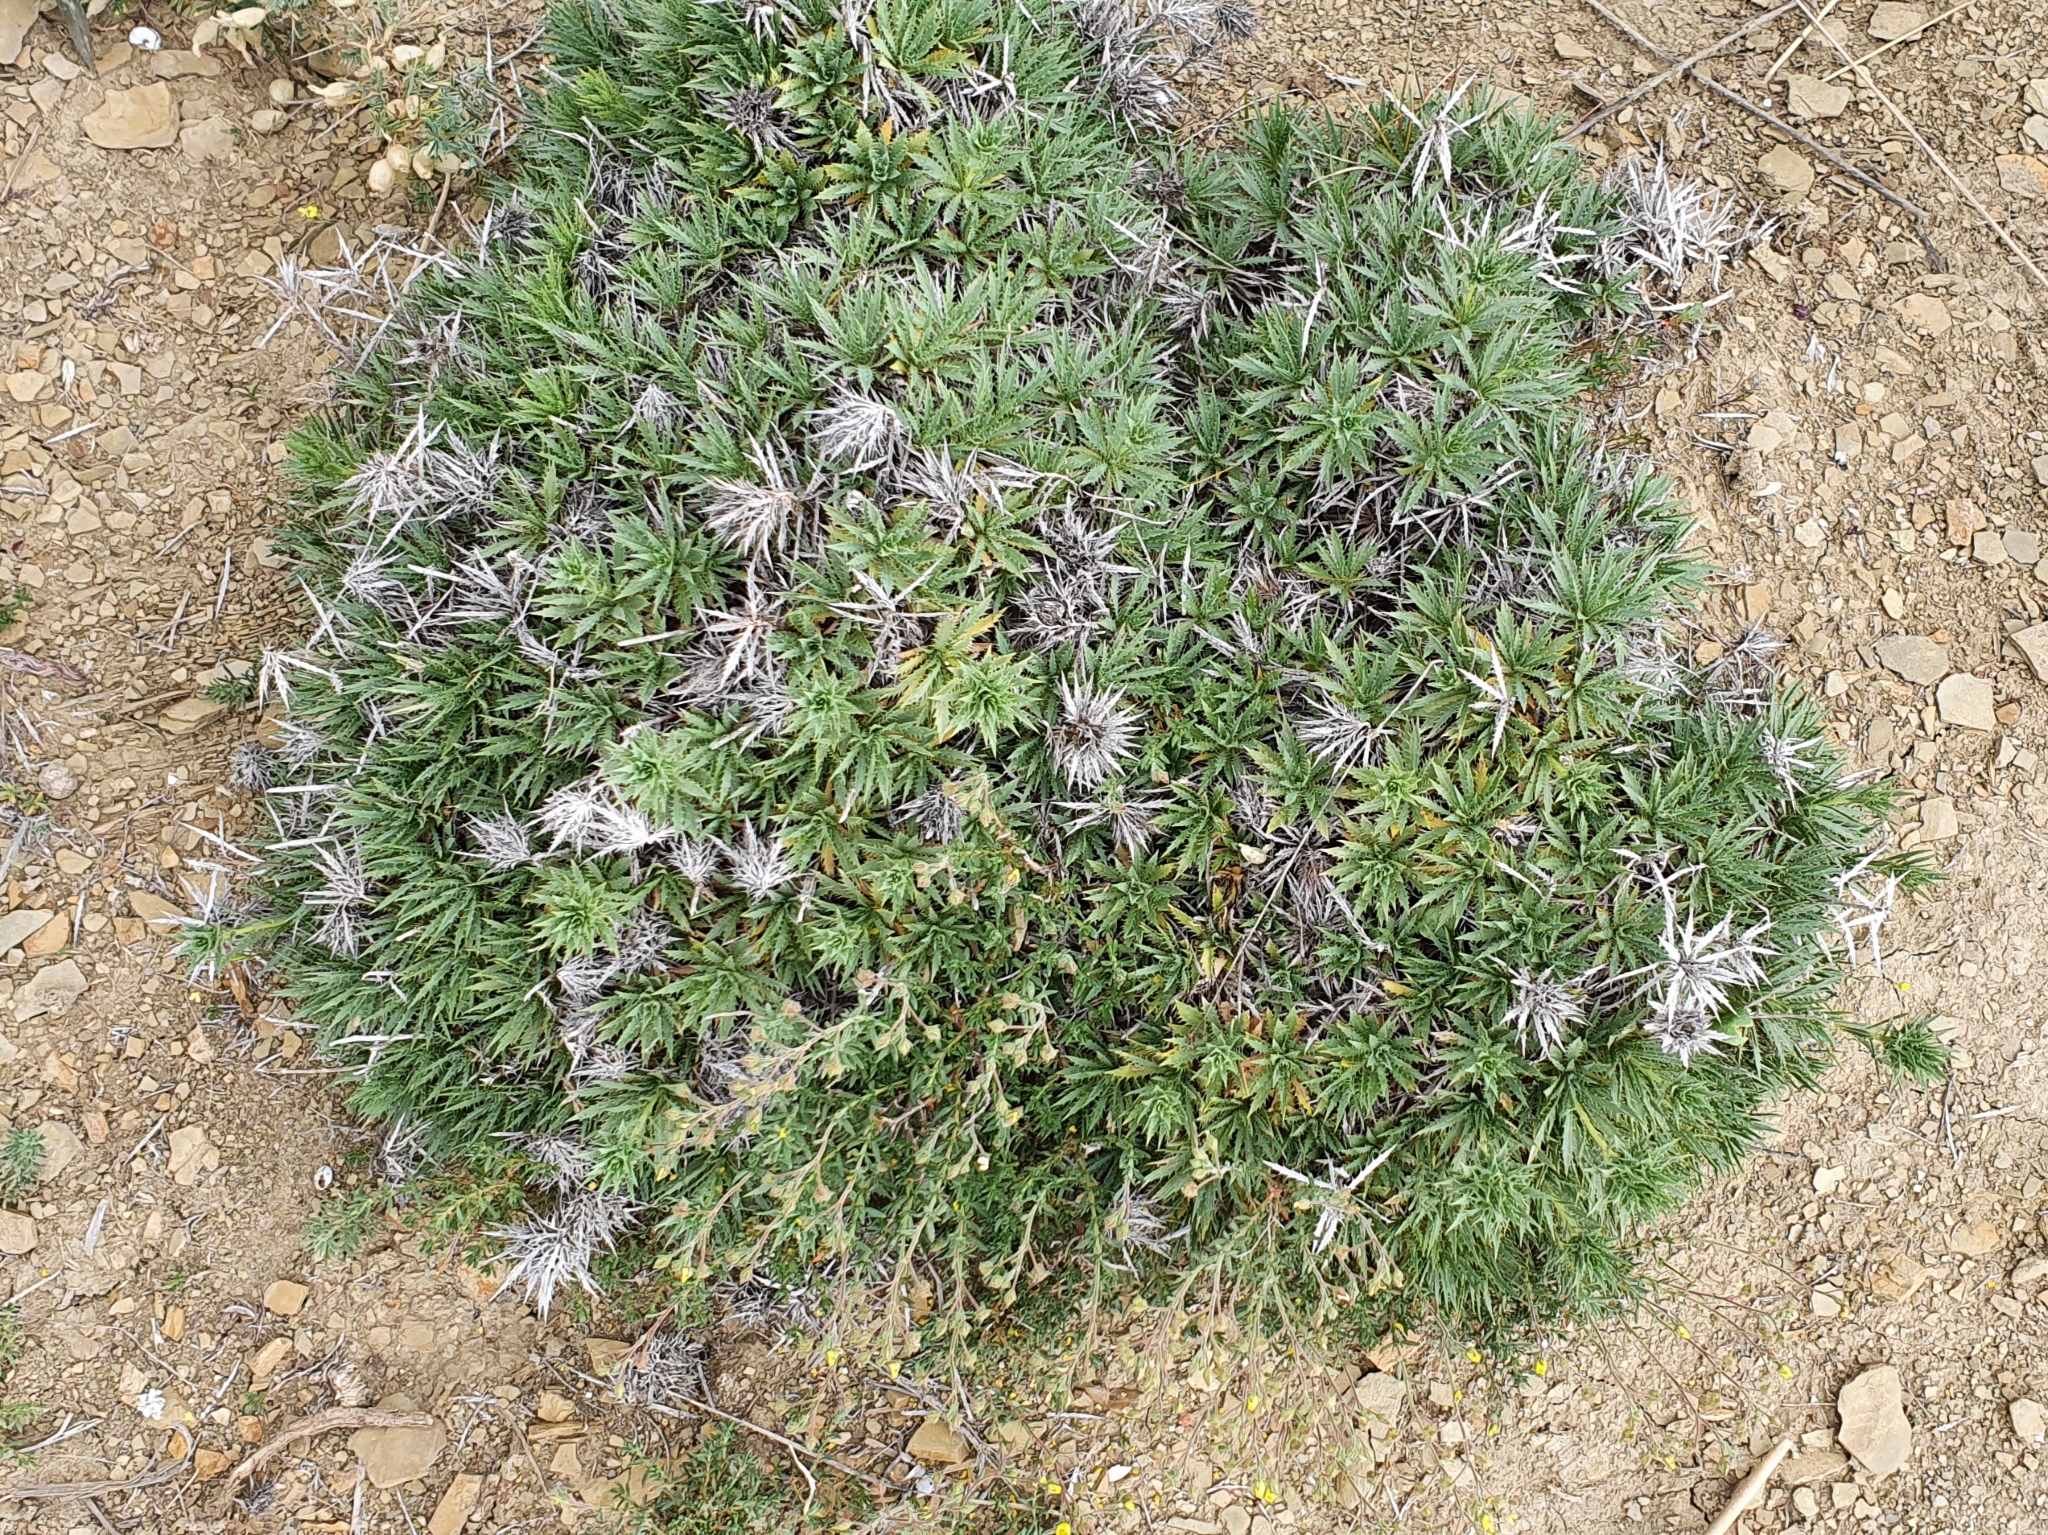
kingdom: Plantae
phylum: Tracheophyta
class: Magnoliopsida
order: Asterales
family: Asteraceae
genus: Atractylis
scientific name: Atractylis caespitosa
